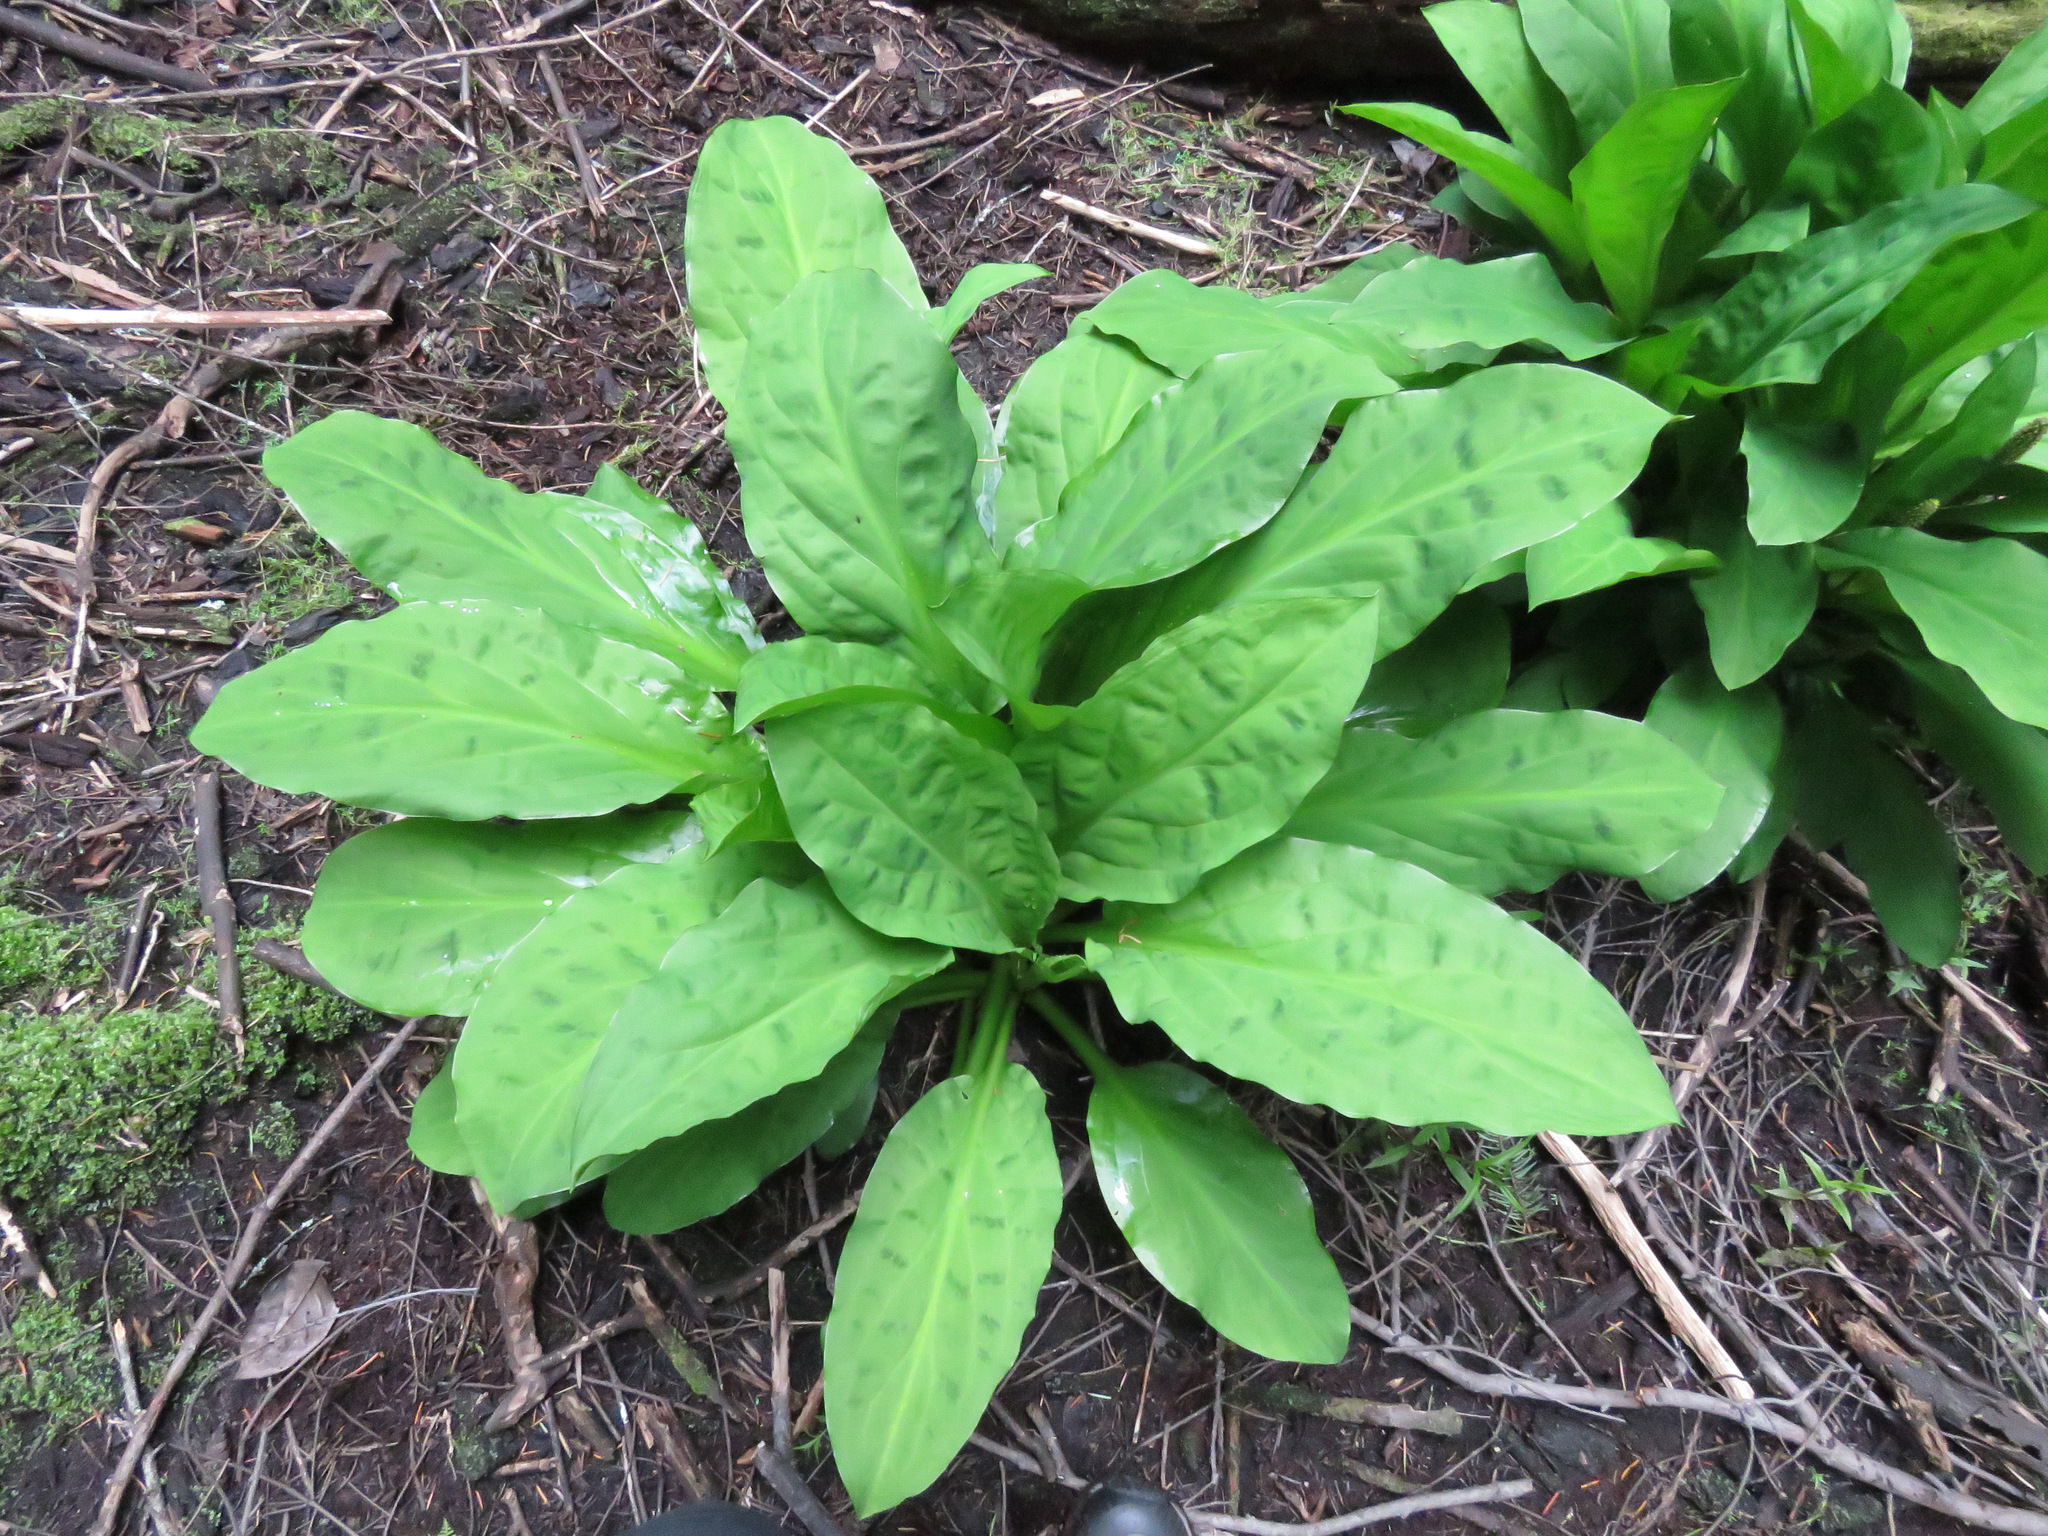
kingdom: Plantae
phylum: Tracheophyta
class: Liliopsida
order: Alismatales
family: Araceae
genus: Lysichiton
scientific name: Lysichiton americanus
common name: American skunk cabbage
